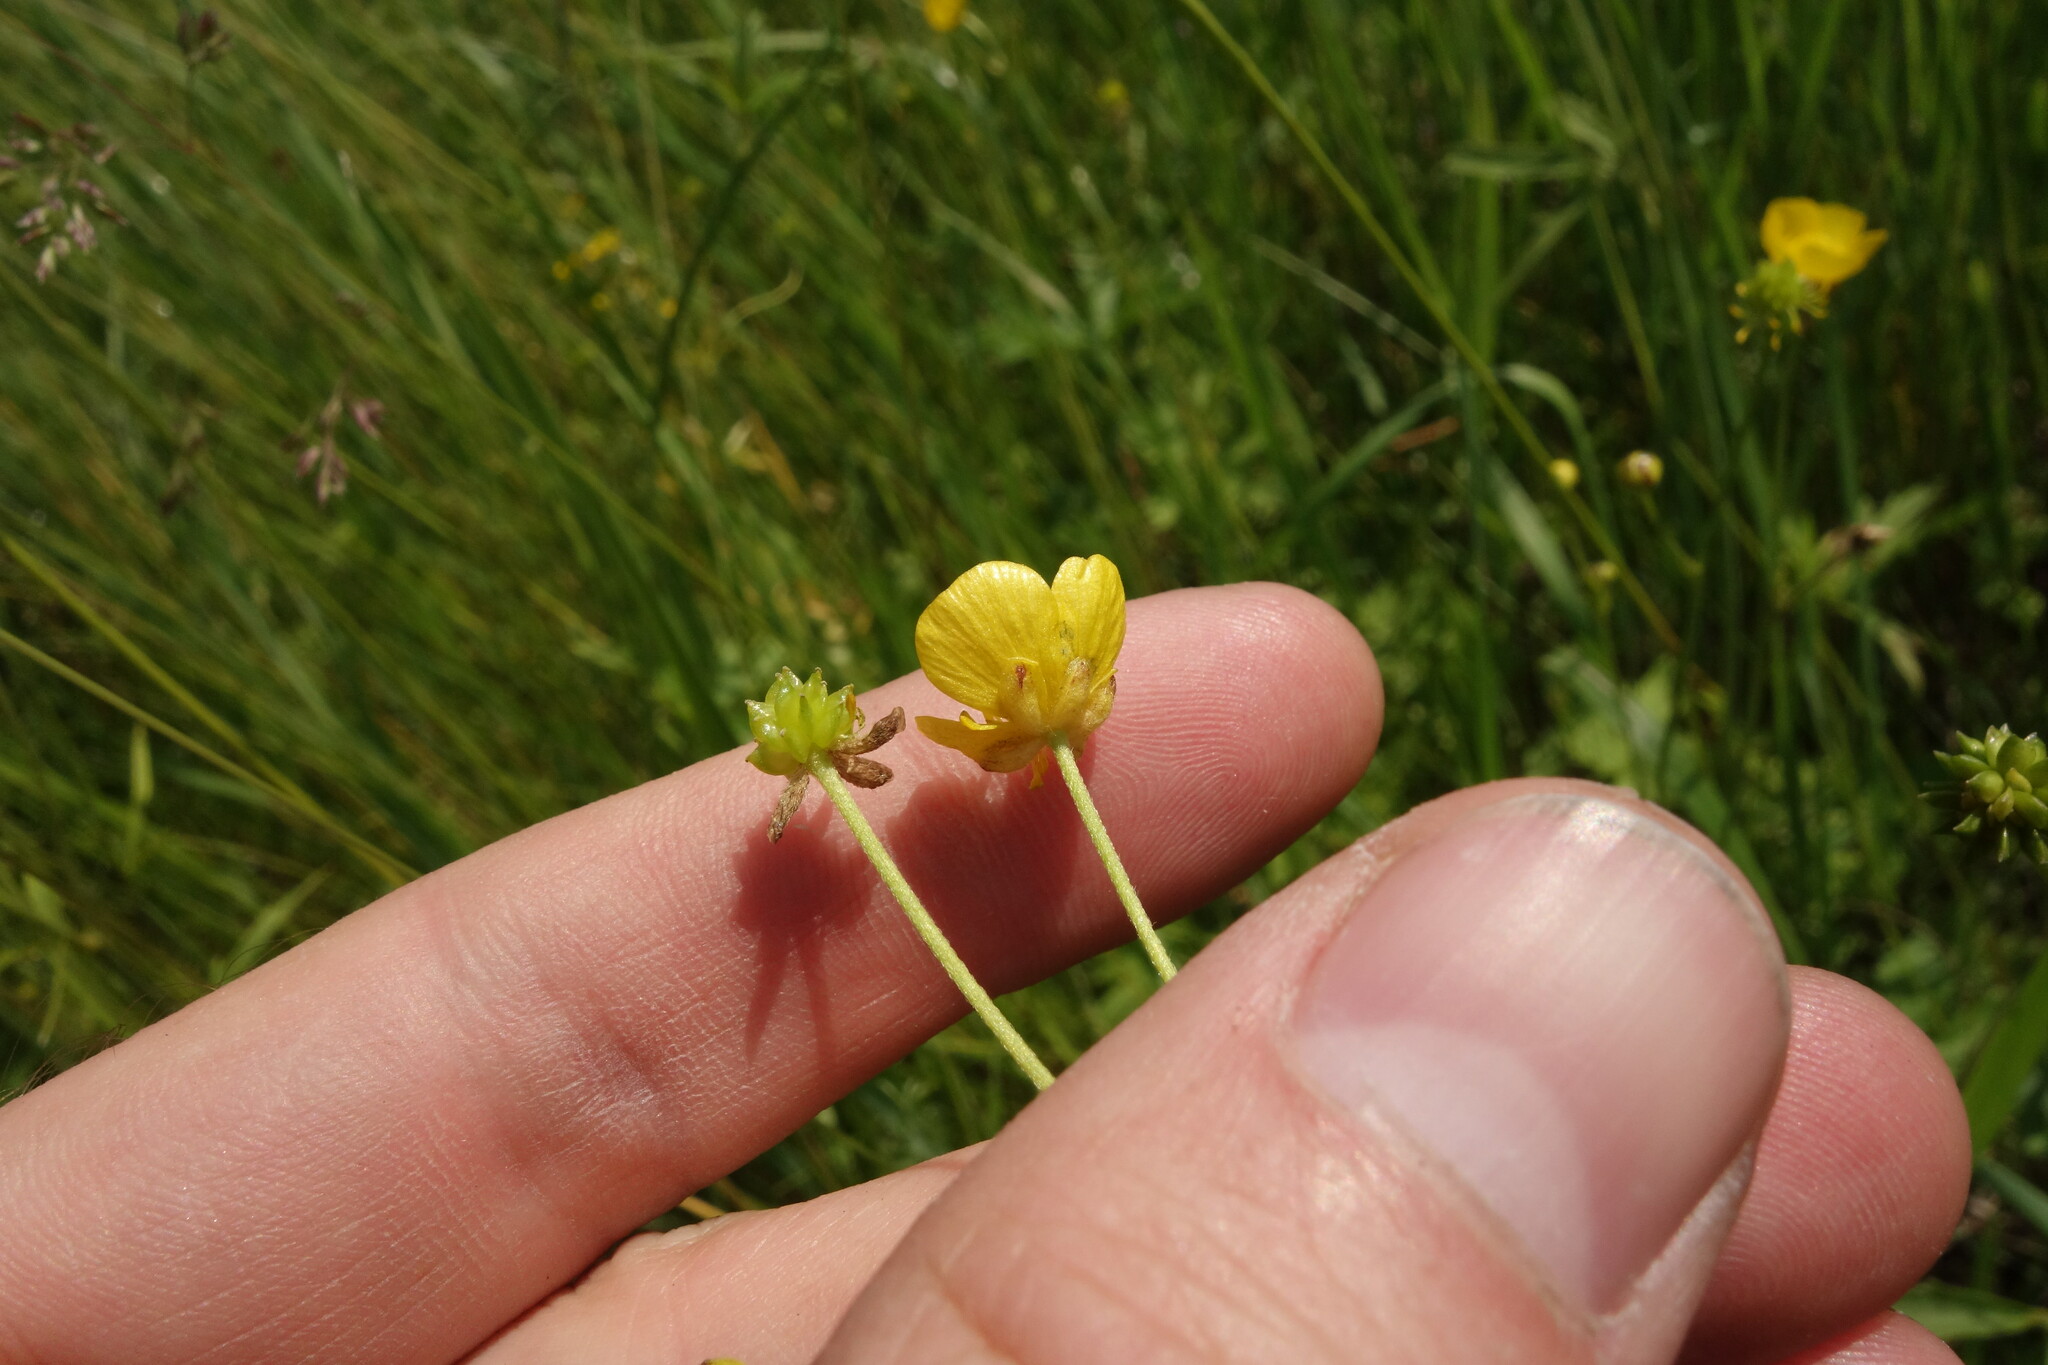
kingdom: Plantae
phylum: Tracheophyta
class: Magnoliopsida
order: Ranunculales
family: Ranunculaceae
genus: Ranunculus
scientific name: Ranunculus acris
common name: Meadow buttercup
